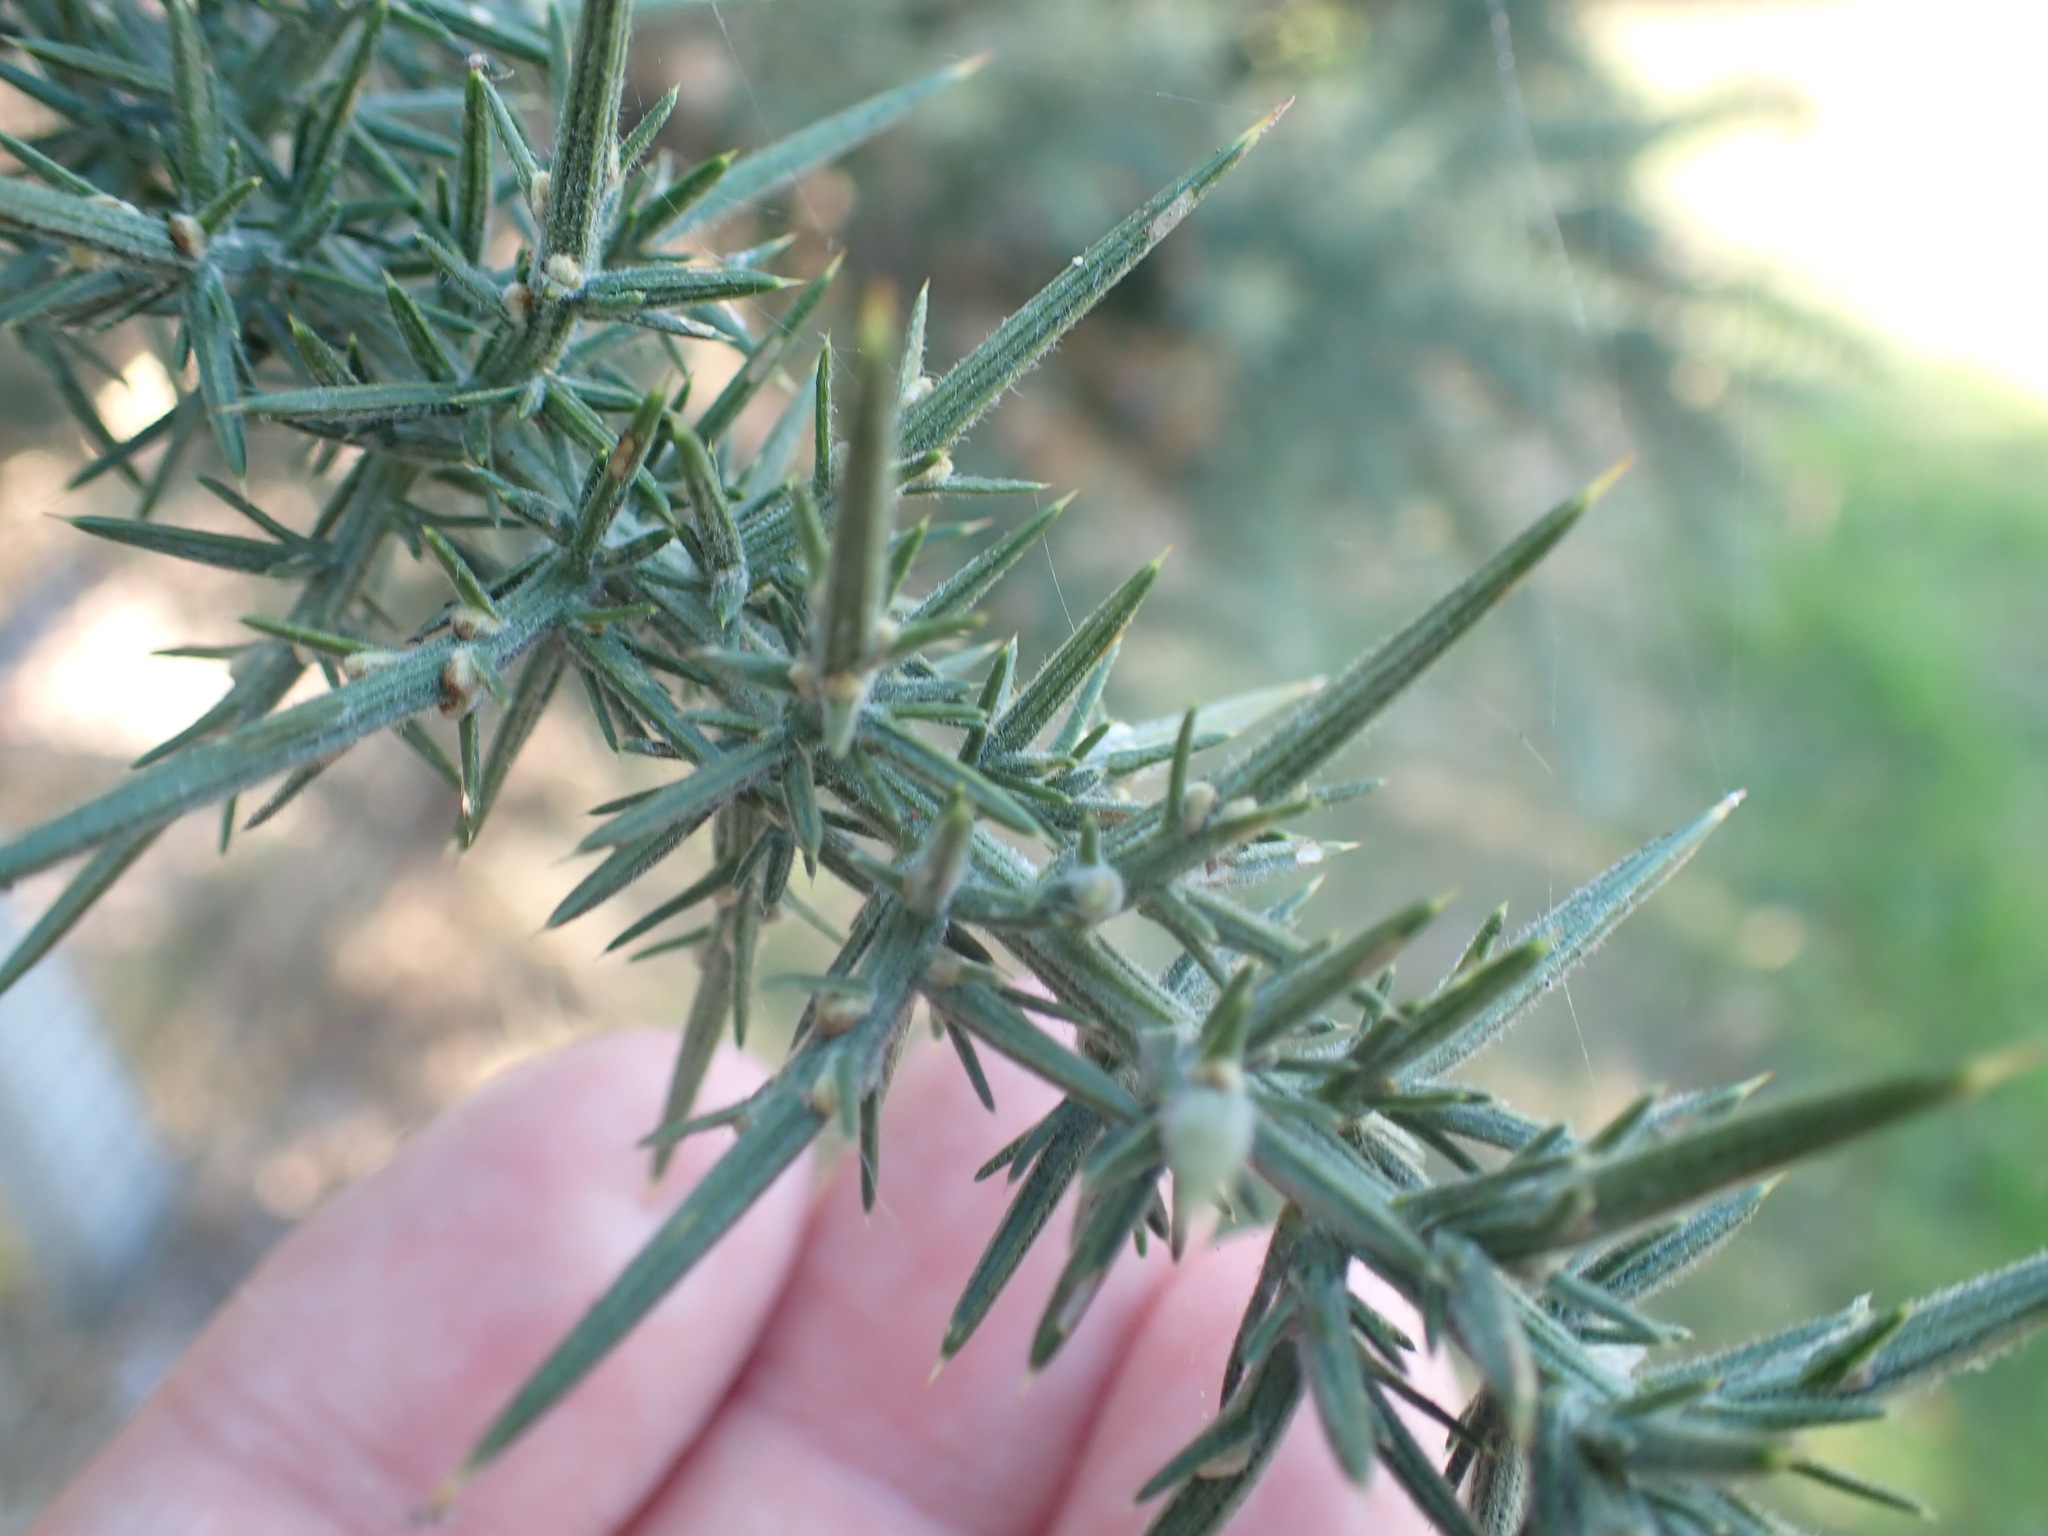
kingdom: Plantae
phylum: Tracheophyta
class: Magnoliopsida
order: Fabales
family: Fabaceae
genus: Ulex
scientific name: Ulex europaeus
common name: Common gorse
